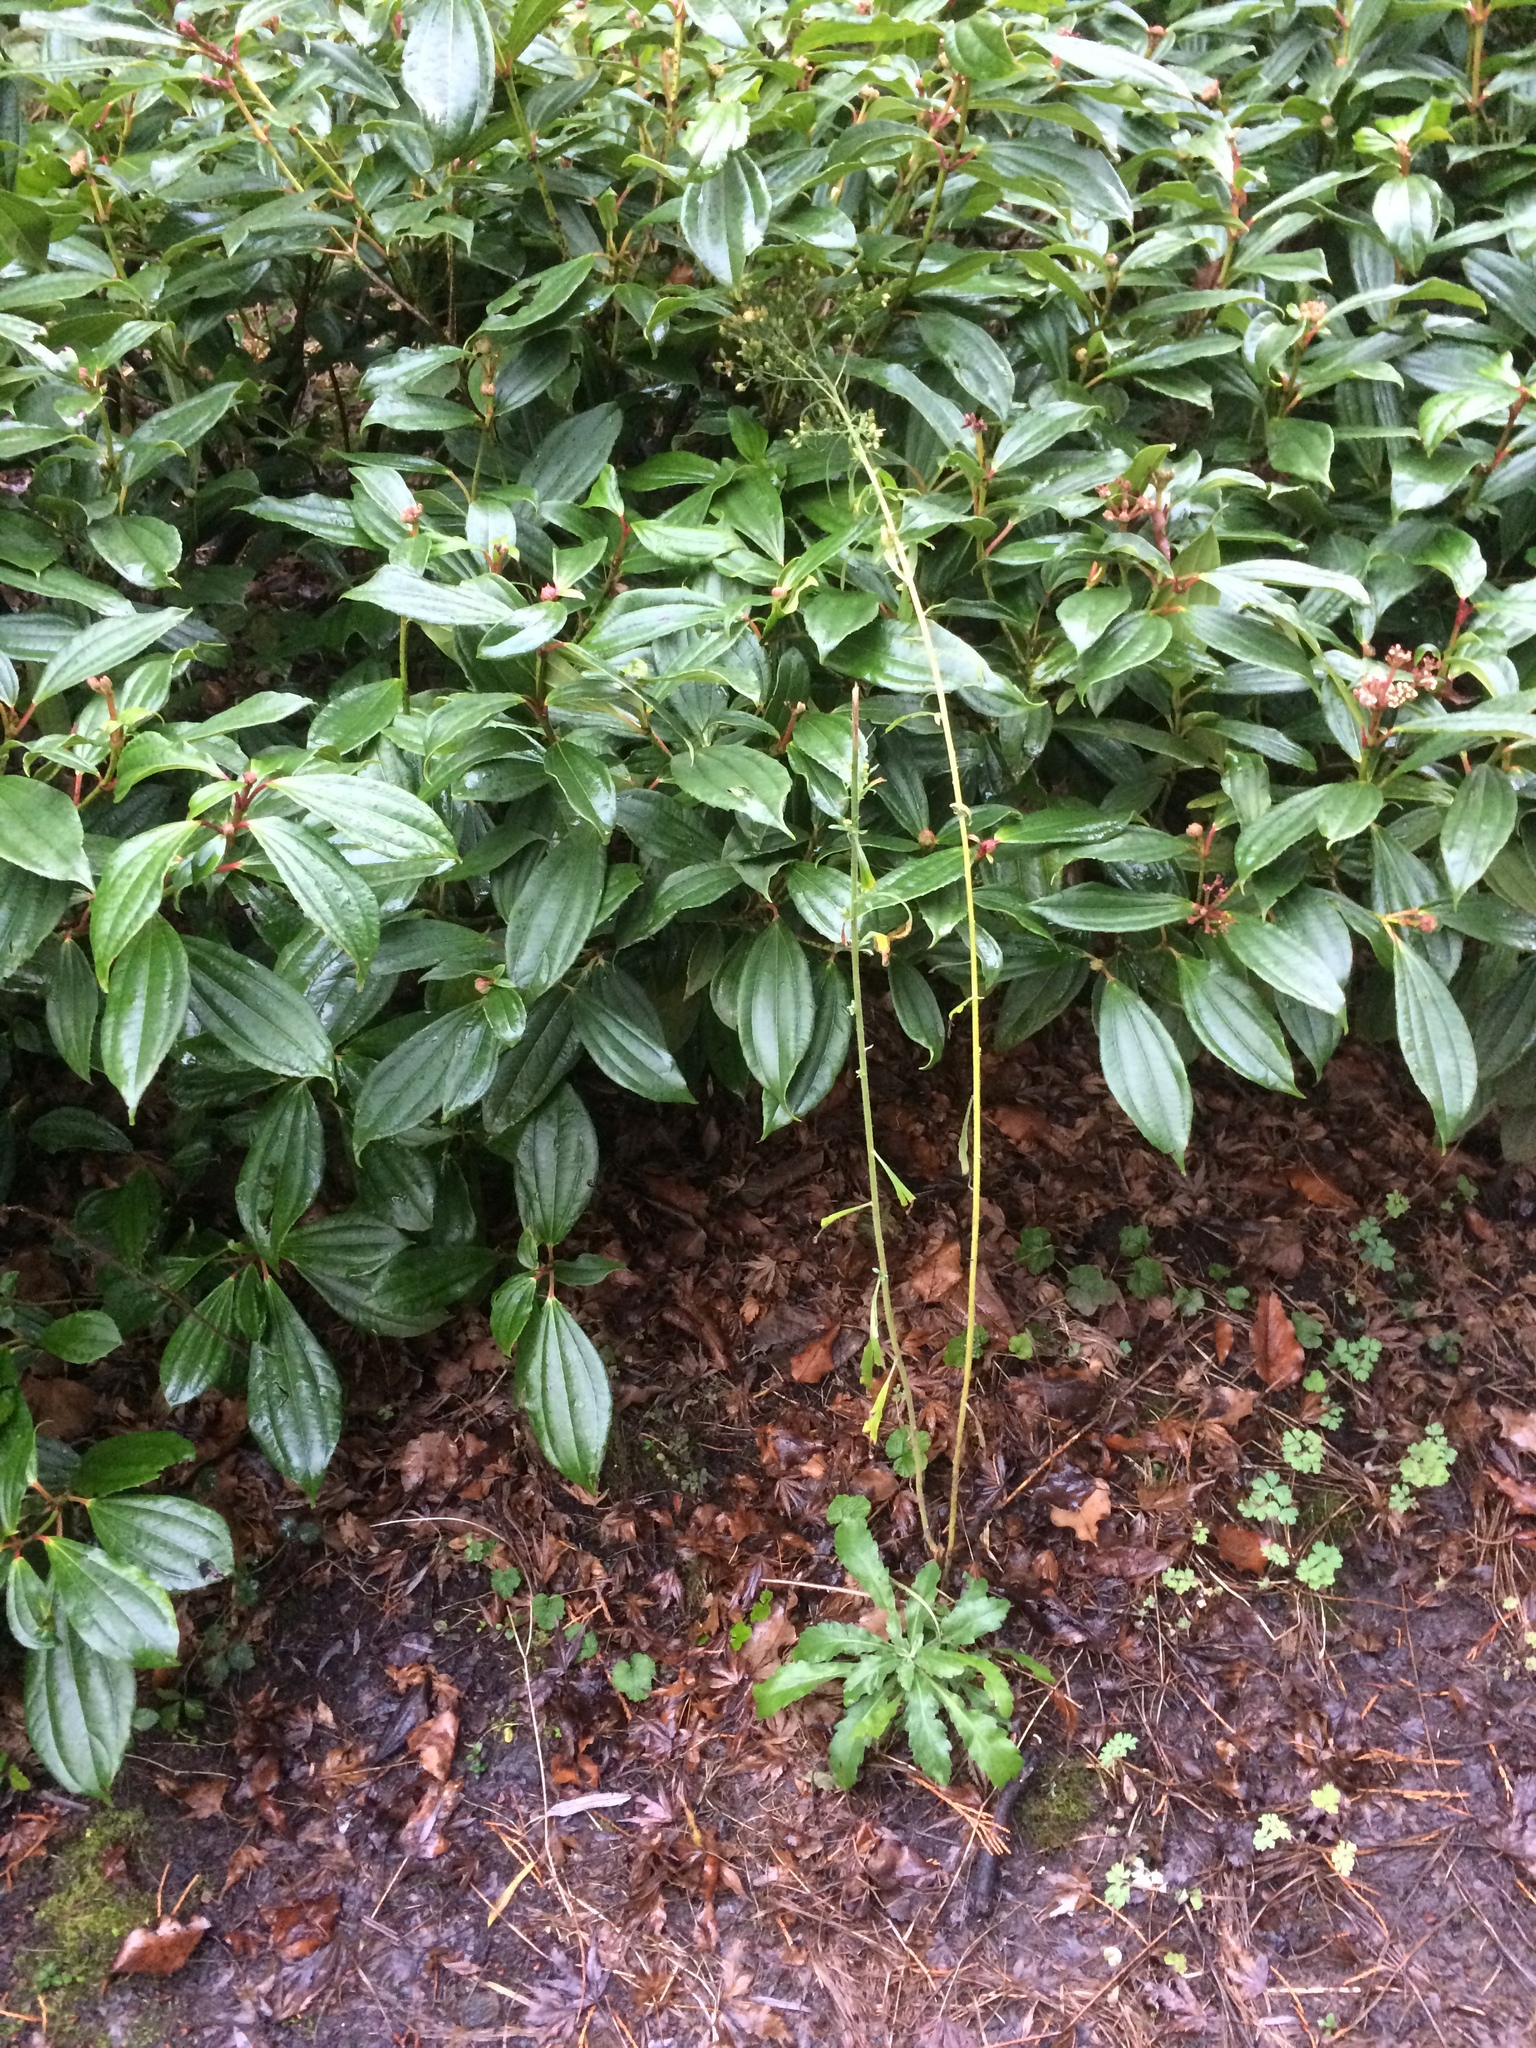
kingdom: Plantae
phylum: Tracheophyta
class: Magnoliopsida
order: Asterales
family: Asteraceae
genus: Erigeron
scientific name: Erigeron canadensis
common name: Canadian fleabane
